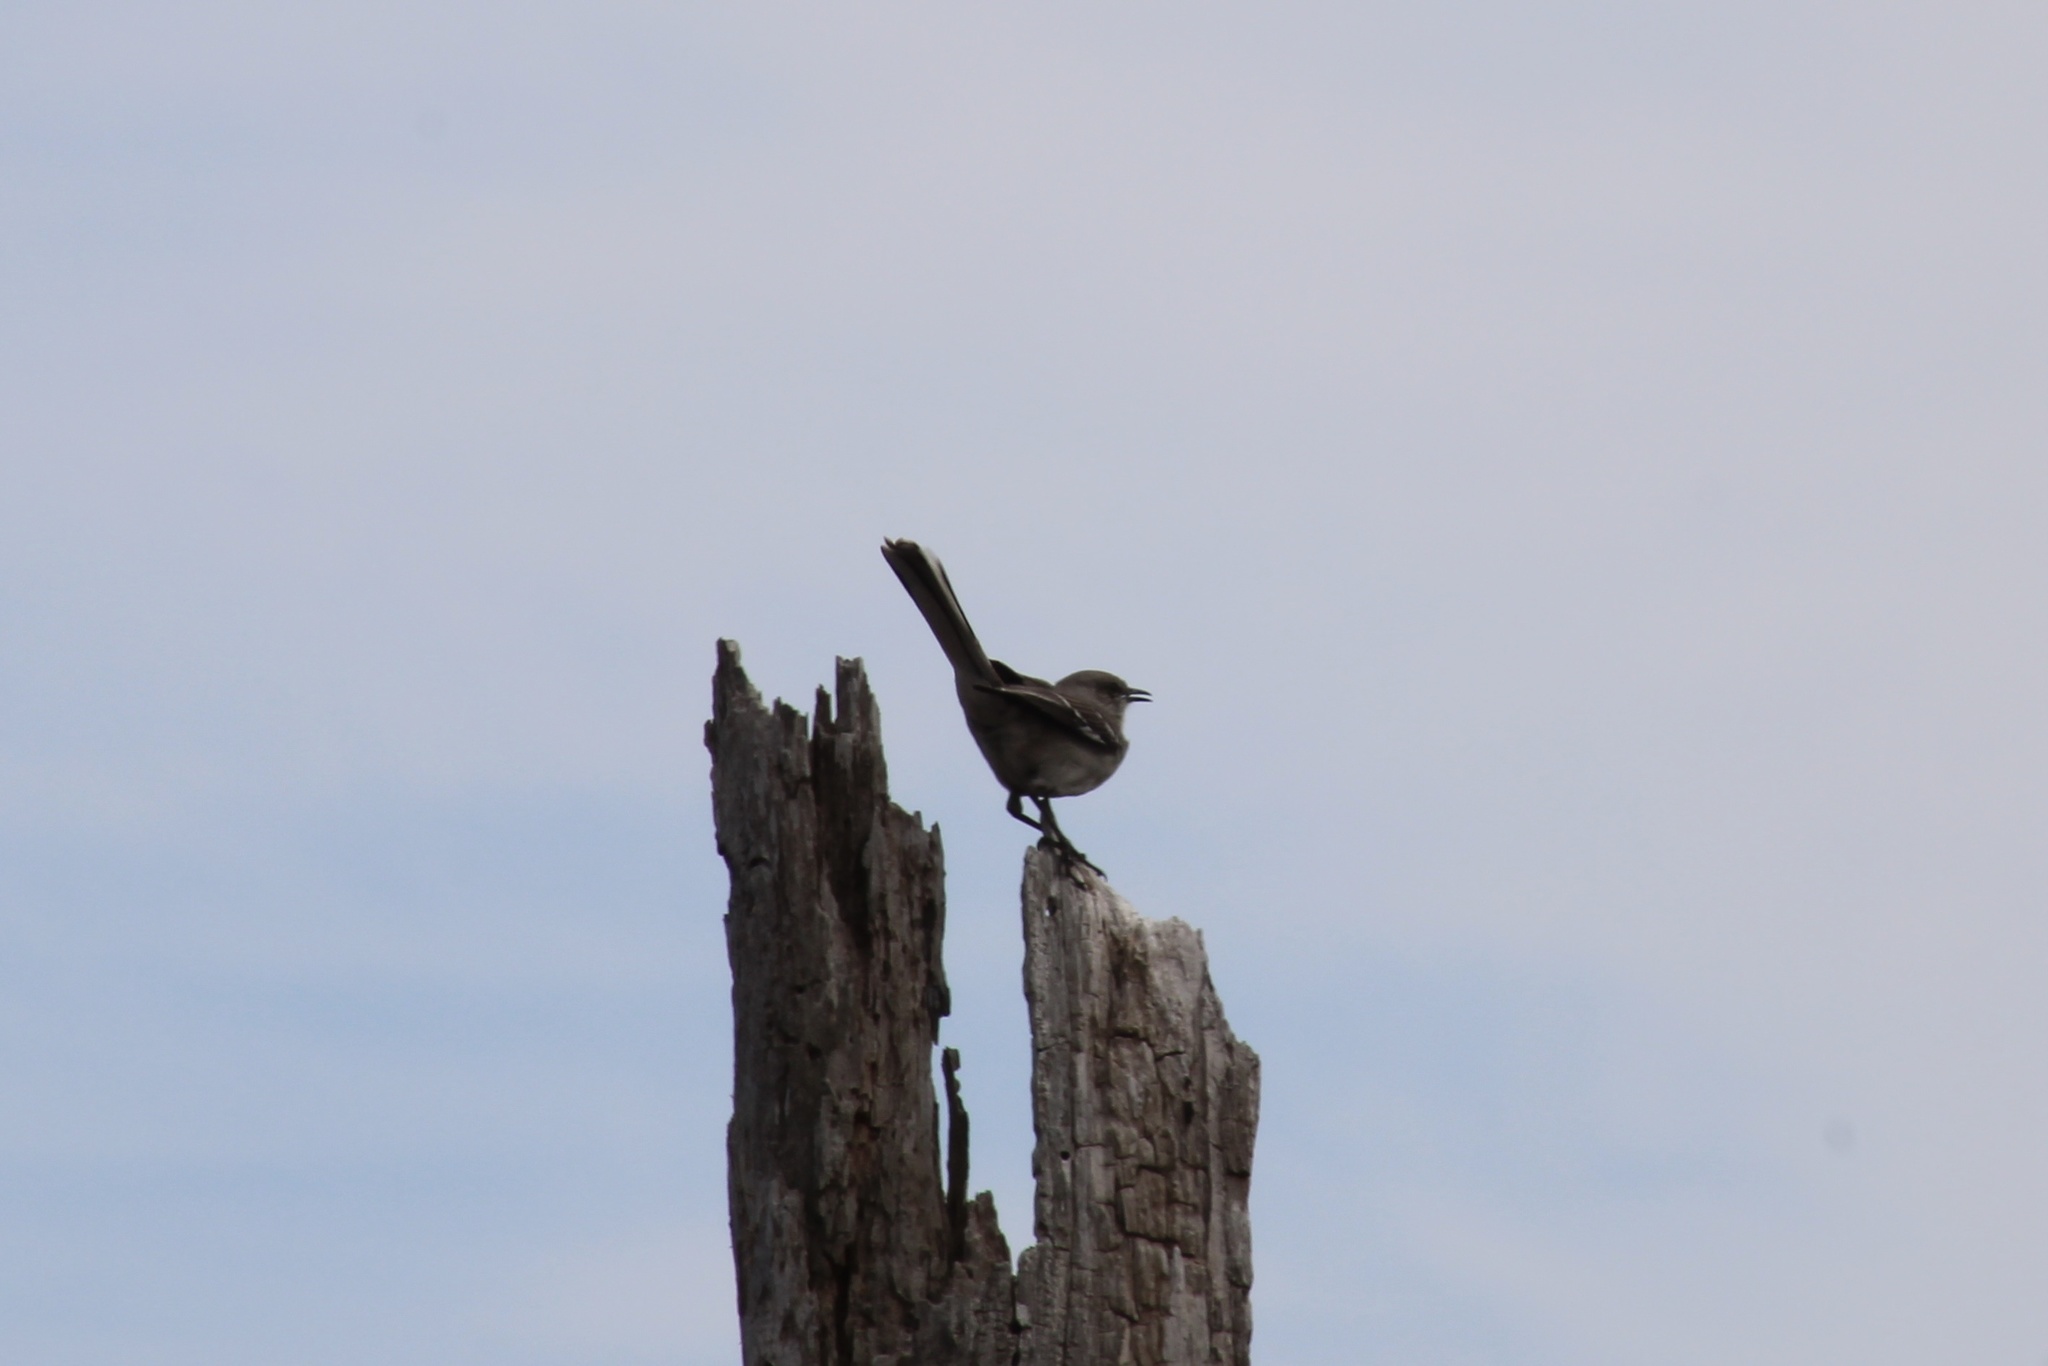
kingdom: Animalia
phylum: Chordata
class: Aves
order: Passeriformes
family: Mimidae
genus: Mimus
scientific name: Mimus polyglottos
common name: Northern mockingbird
